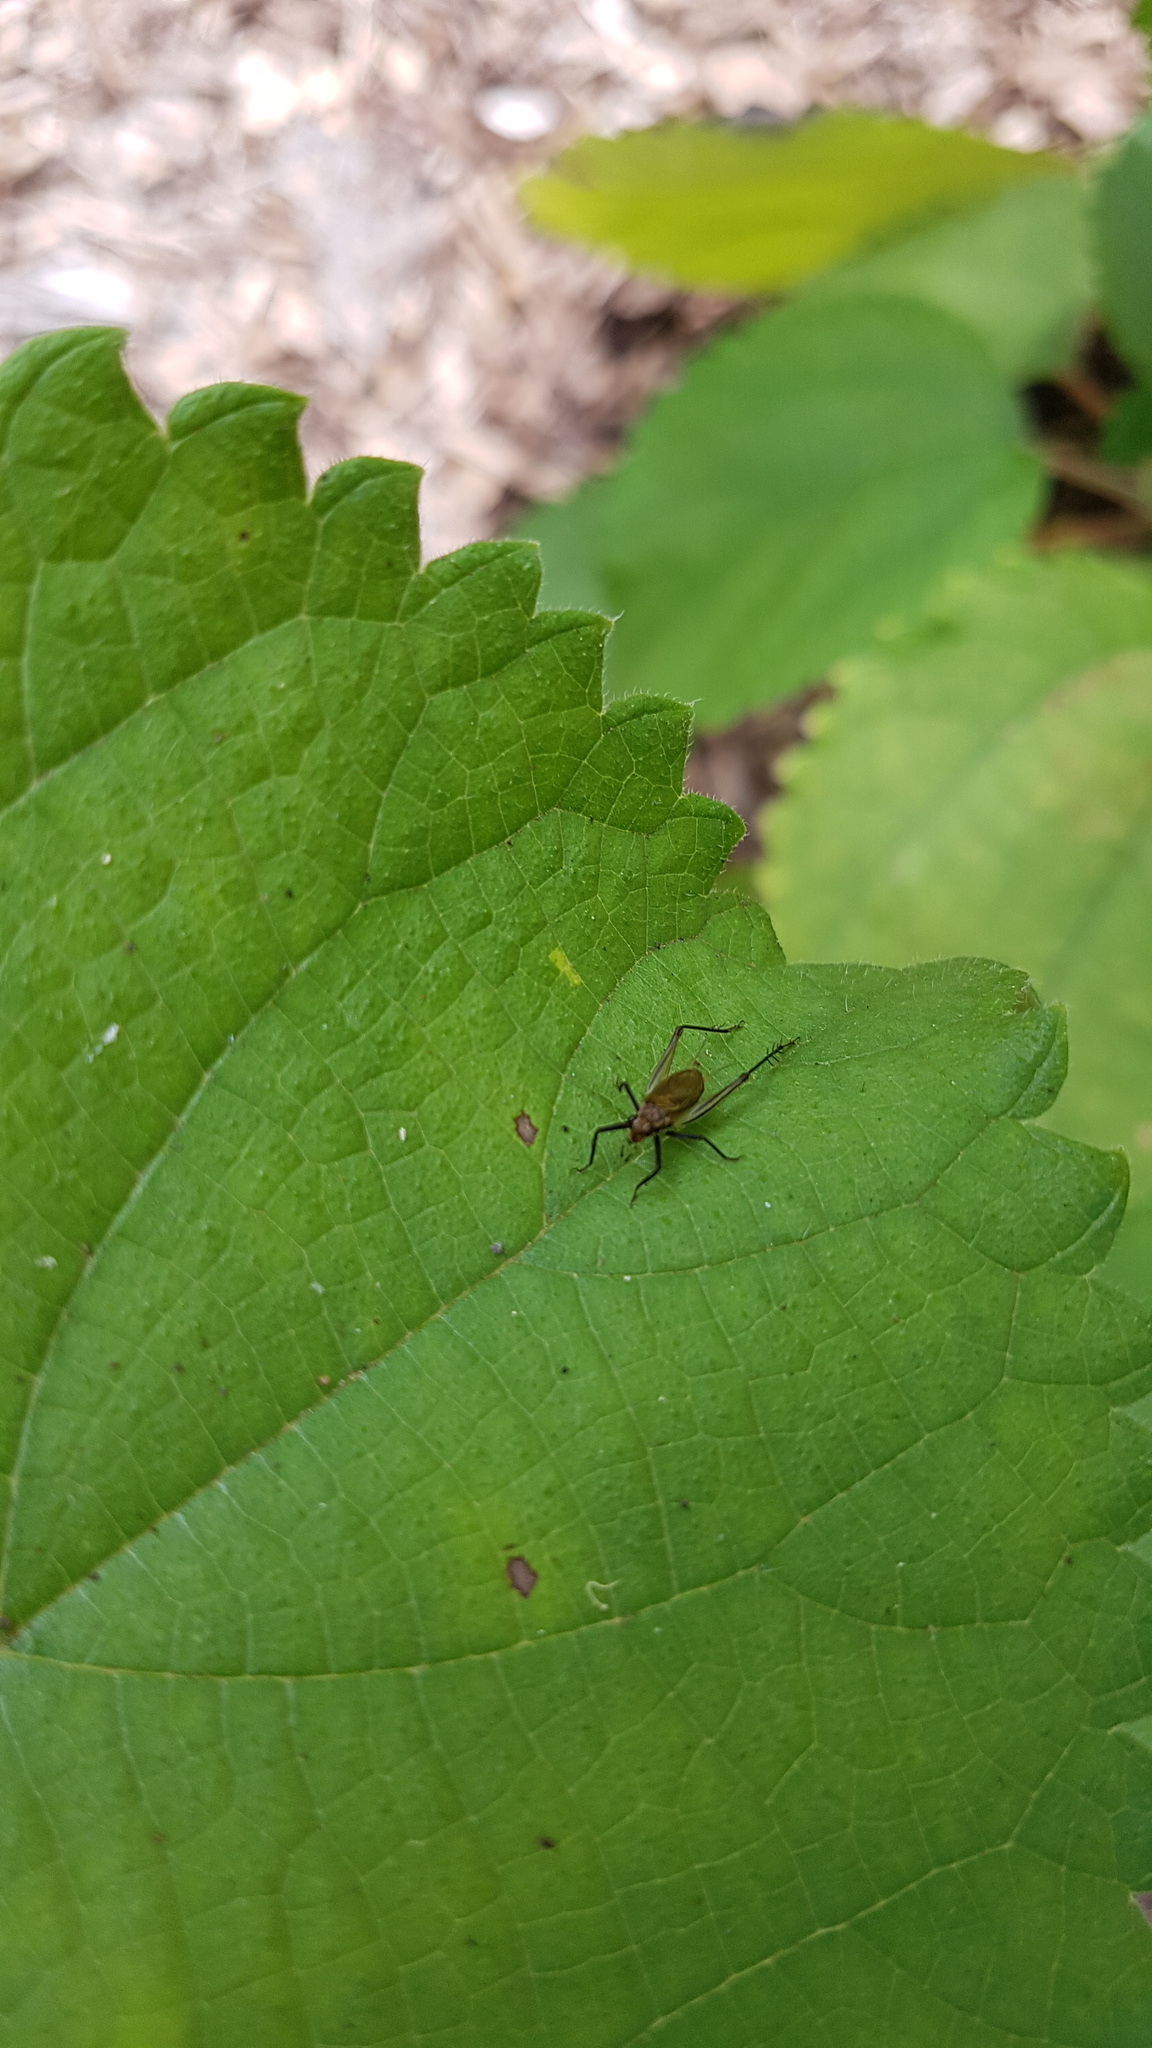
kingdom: Animalia
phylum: Arthropoda
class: Insecta
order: Orthoptera
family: Trigonidiidae
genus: Nanixipha
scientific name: Nanixipha nahoa
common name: Truncated true katydid
